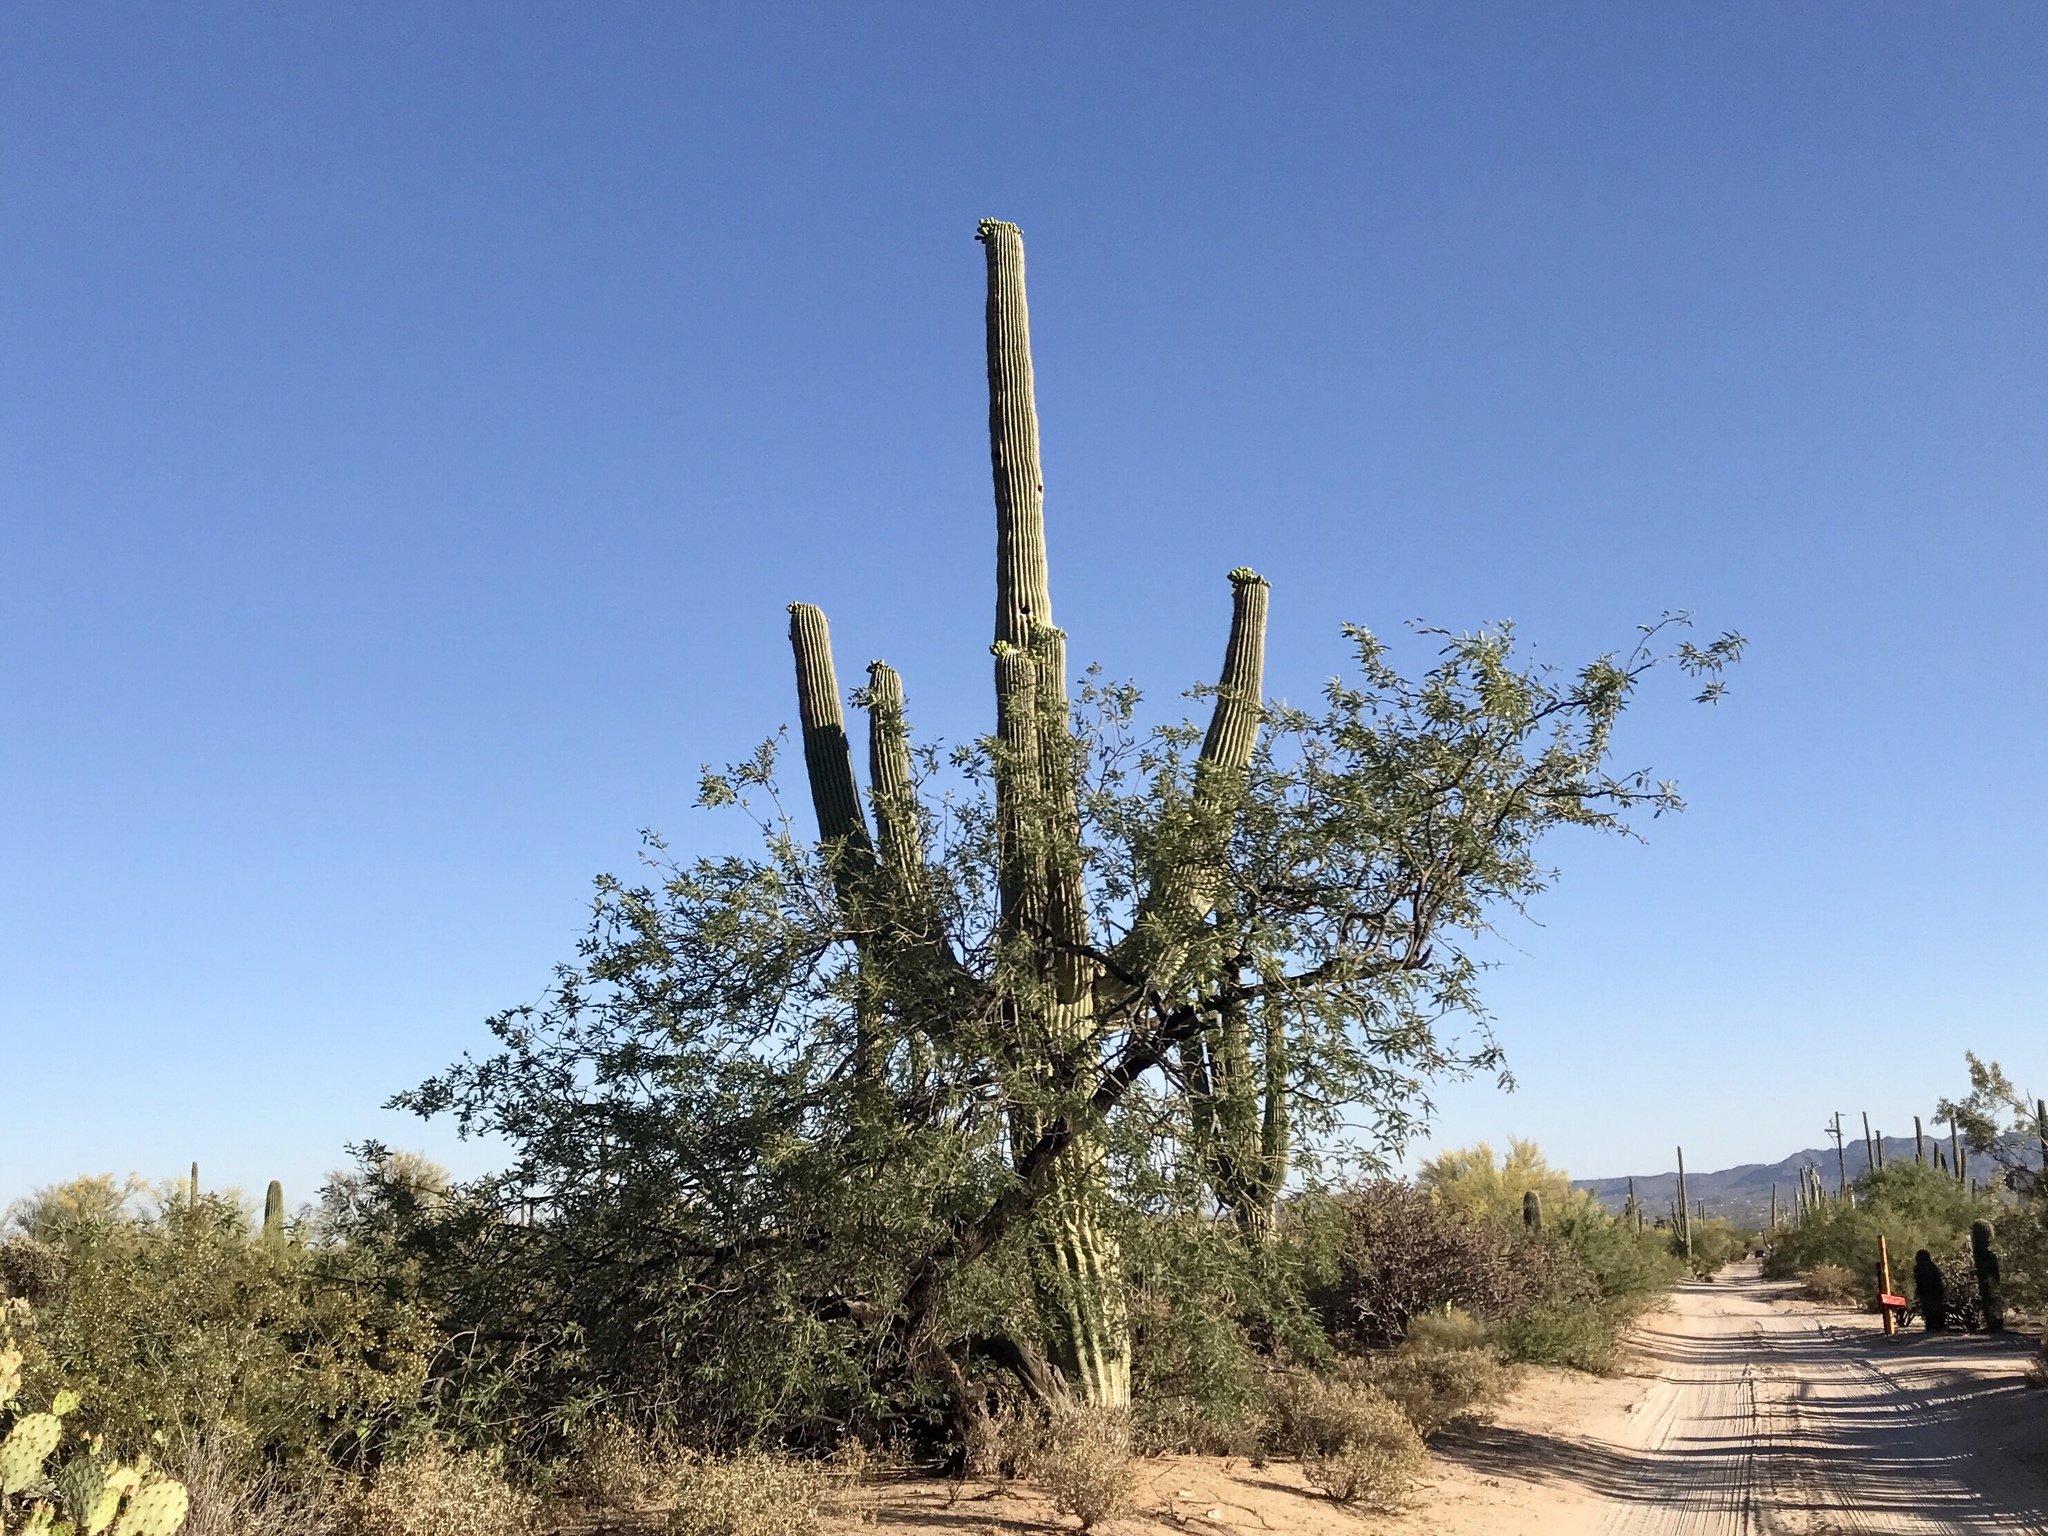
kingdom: Plantae
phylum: Tracheophyta
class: Magnoliopsida
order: Fabales
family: Fabaceae
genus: Prosopis
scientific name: Prosopis velutina
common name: Velvet mesquite
